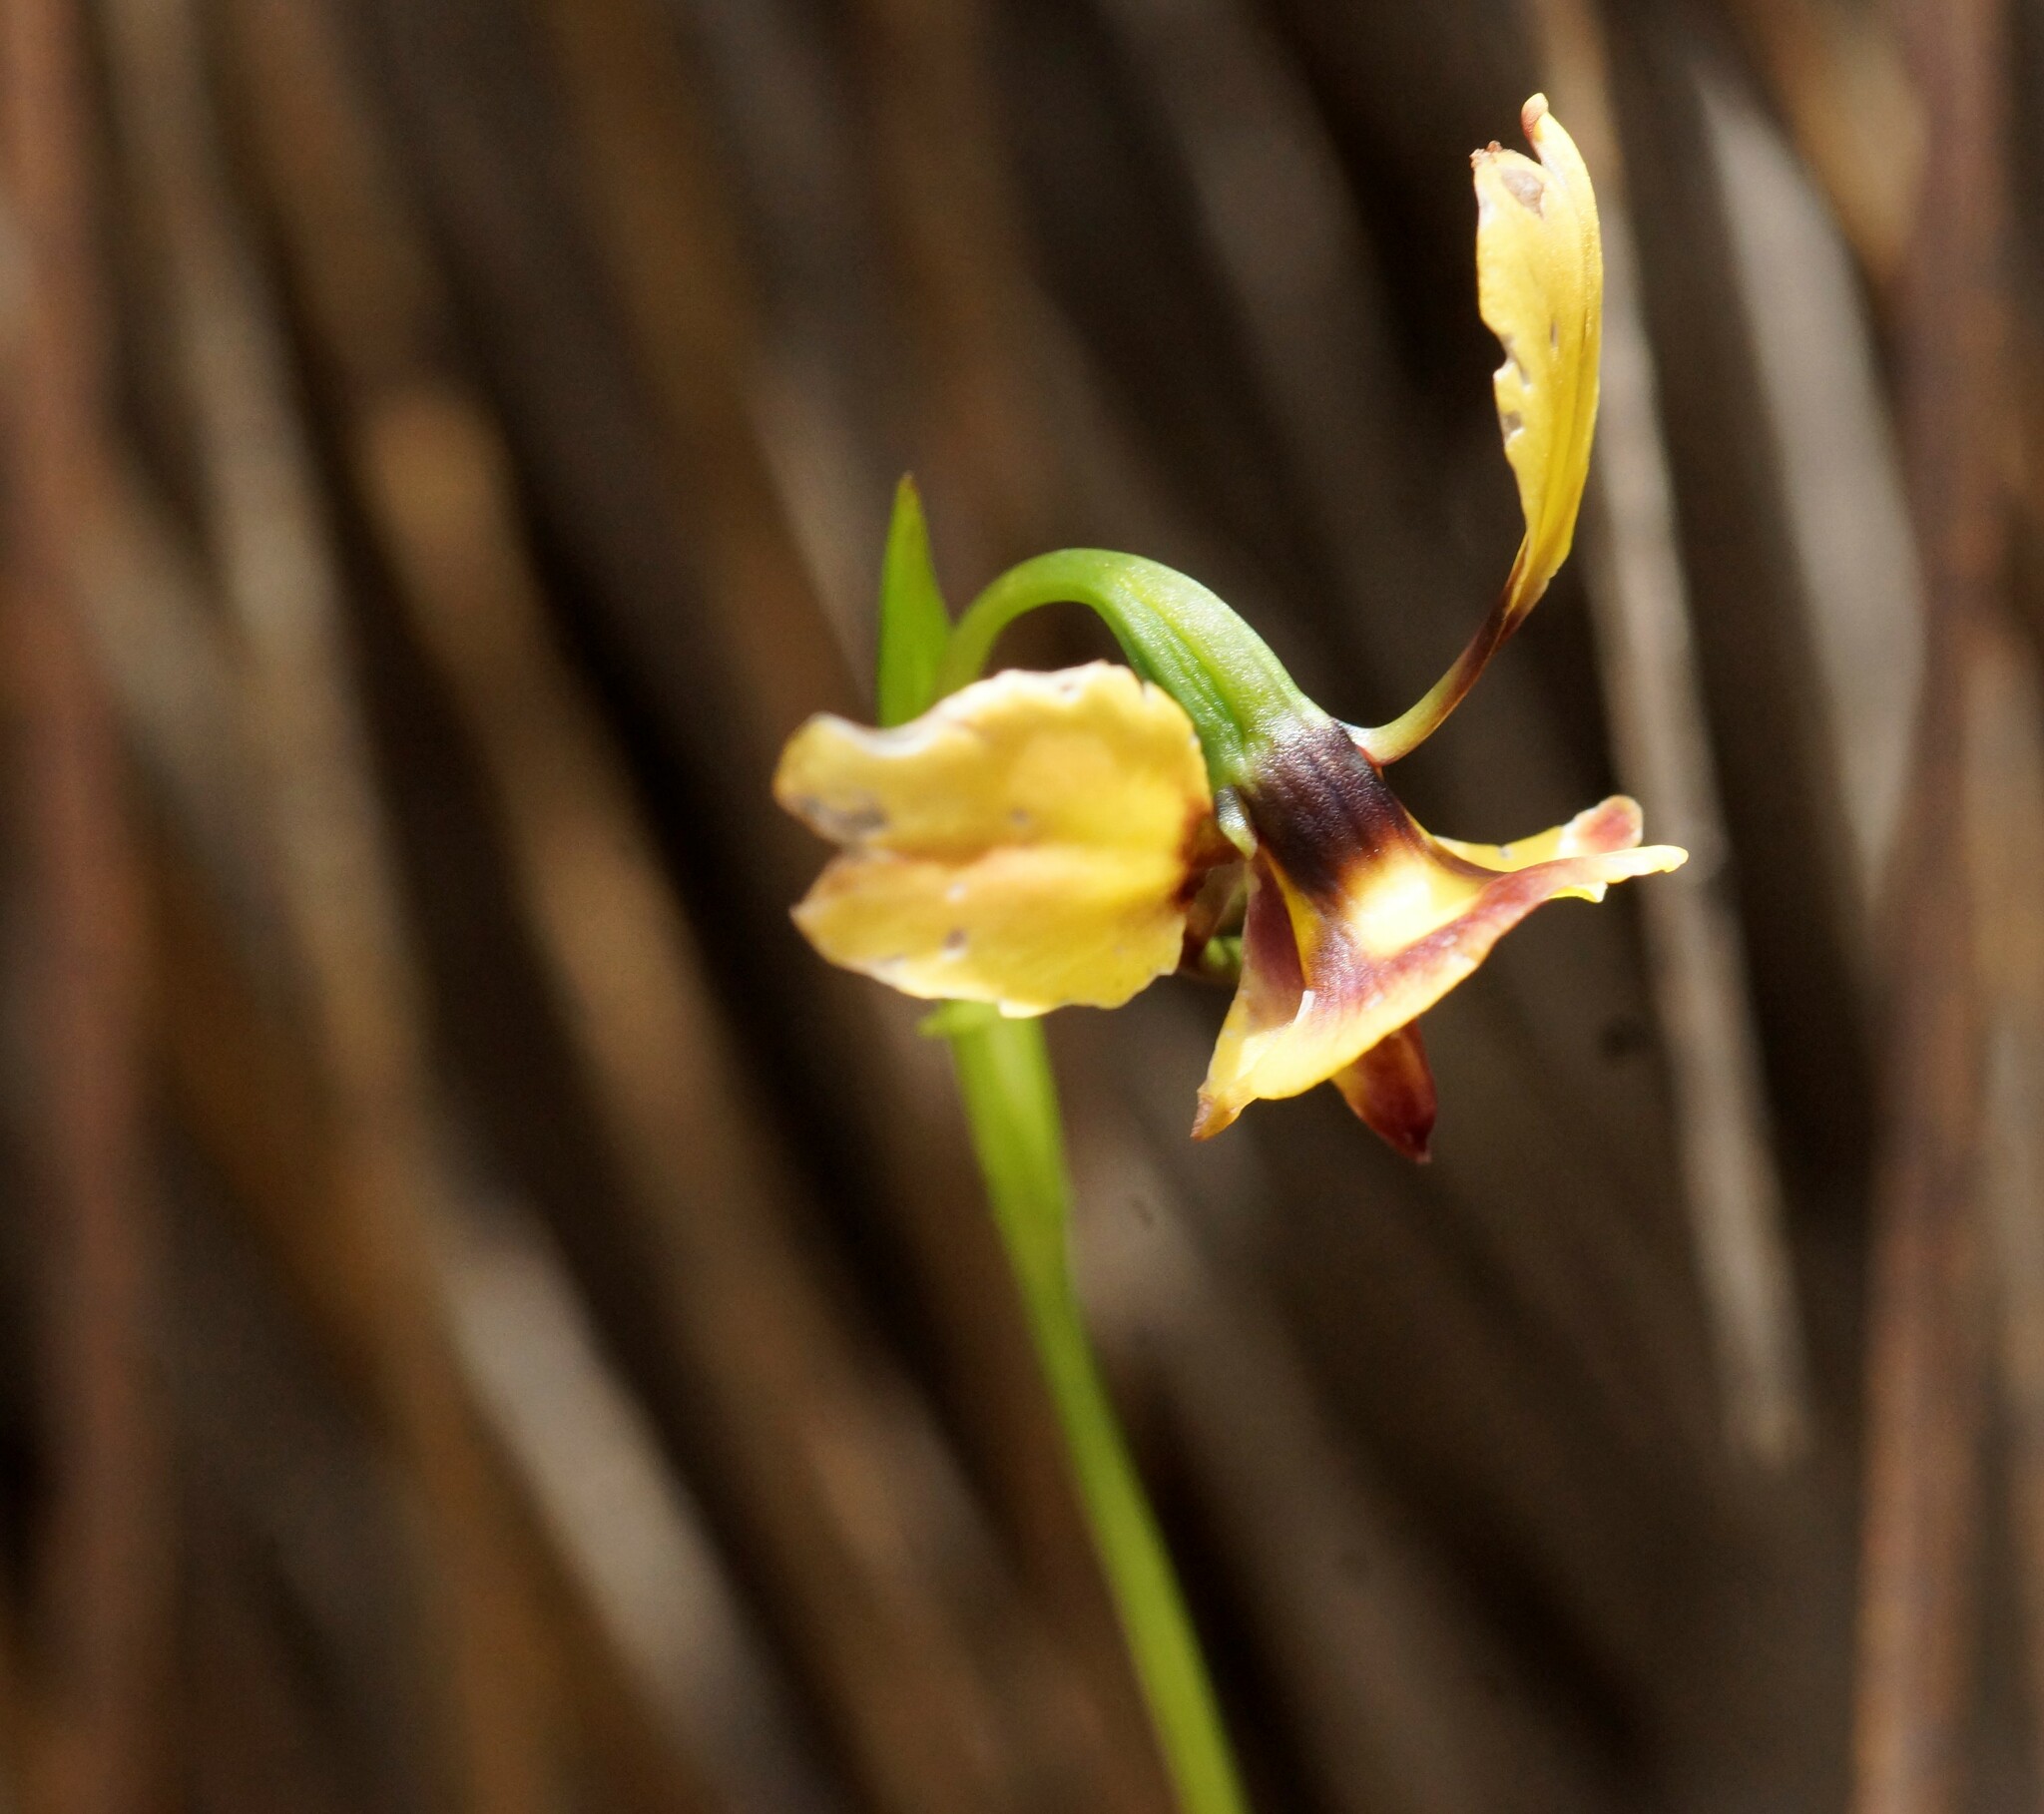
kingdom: Plantae
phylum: Tracheophyta
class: Liliopsida
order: Asparagales
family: Orchidaceae
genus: Diuris
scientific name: Diuris orientis
